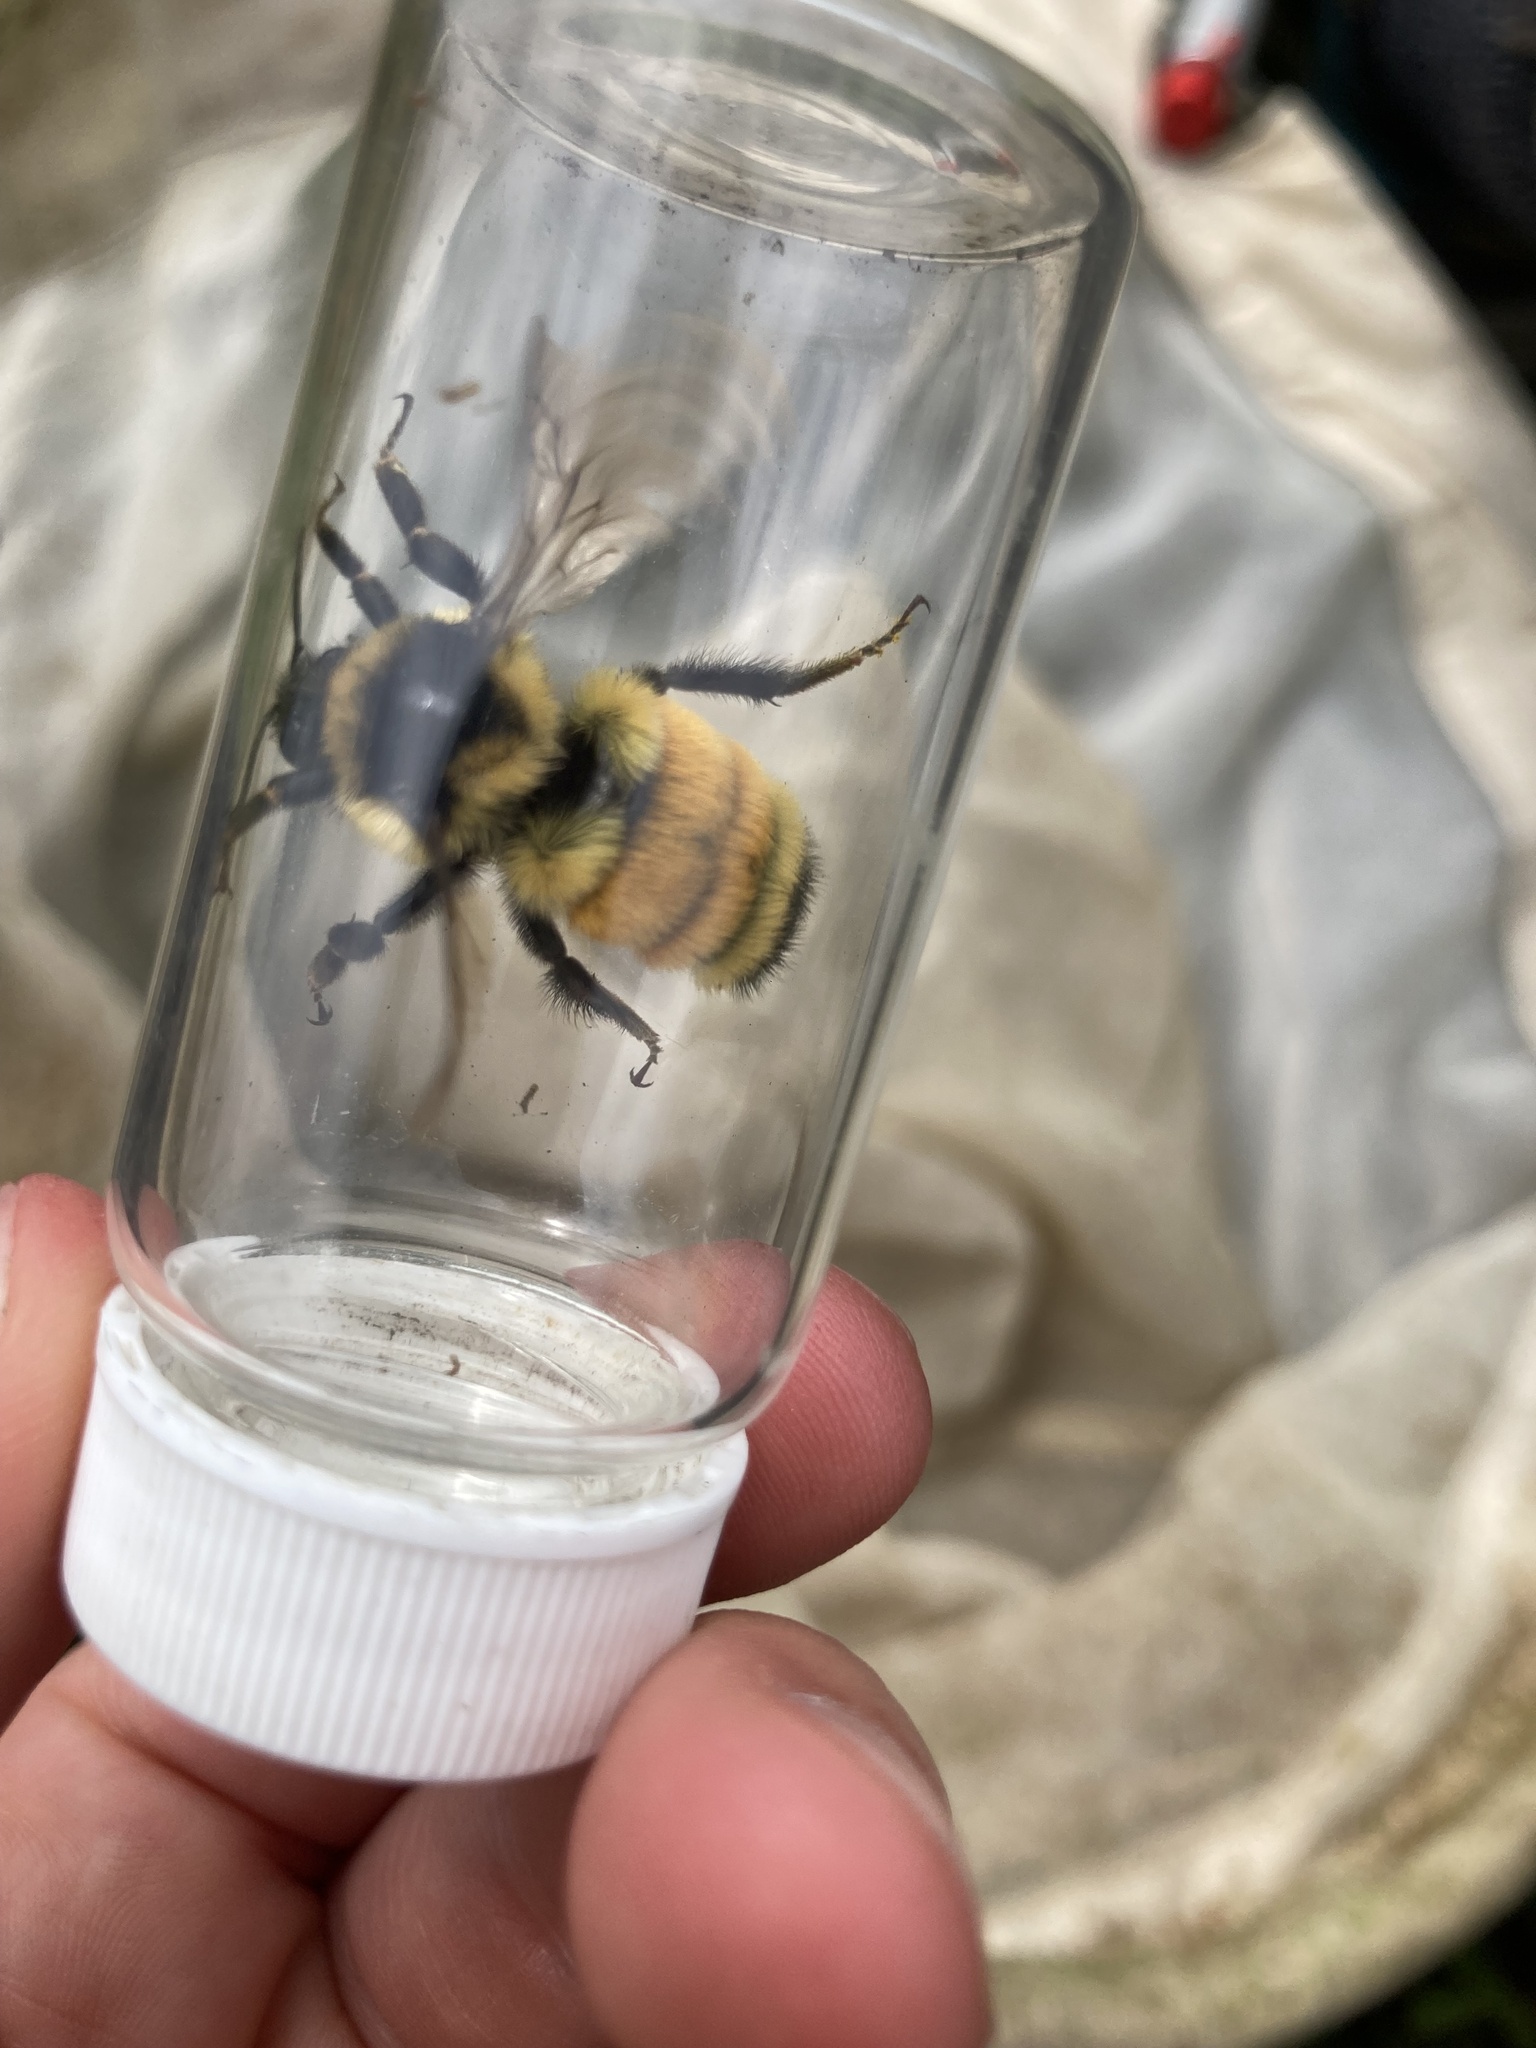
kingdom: Animalia
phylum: Arthropoda
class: Insecta
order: Hymenoptera
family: Apidae
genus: Bombus
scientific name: Bombus ternarius
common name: Tri-colored bumble bee
